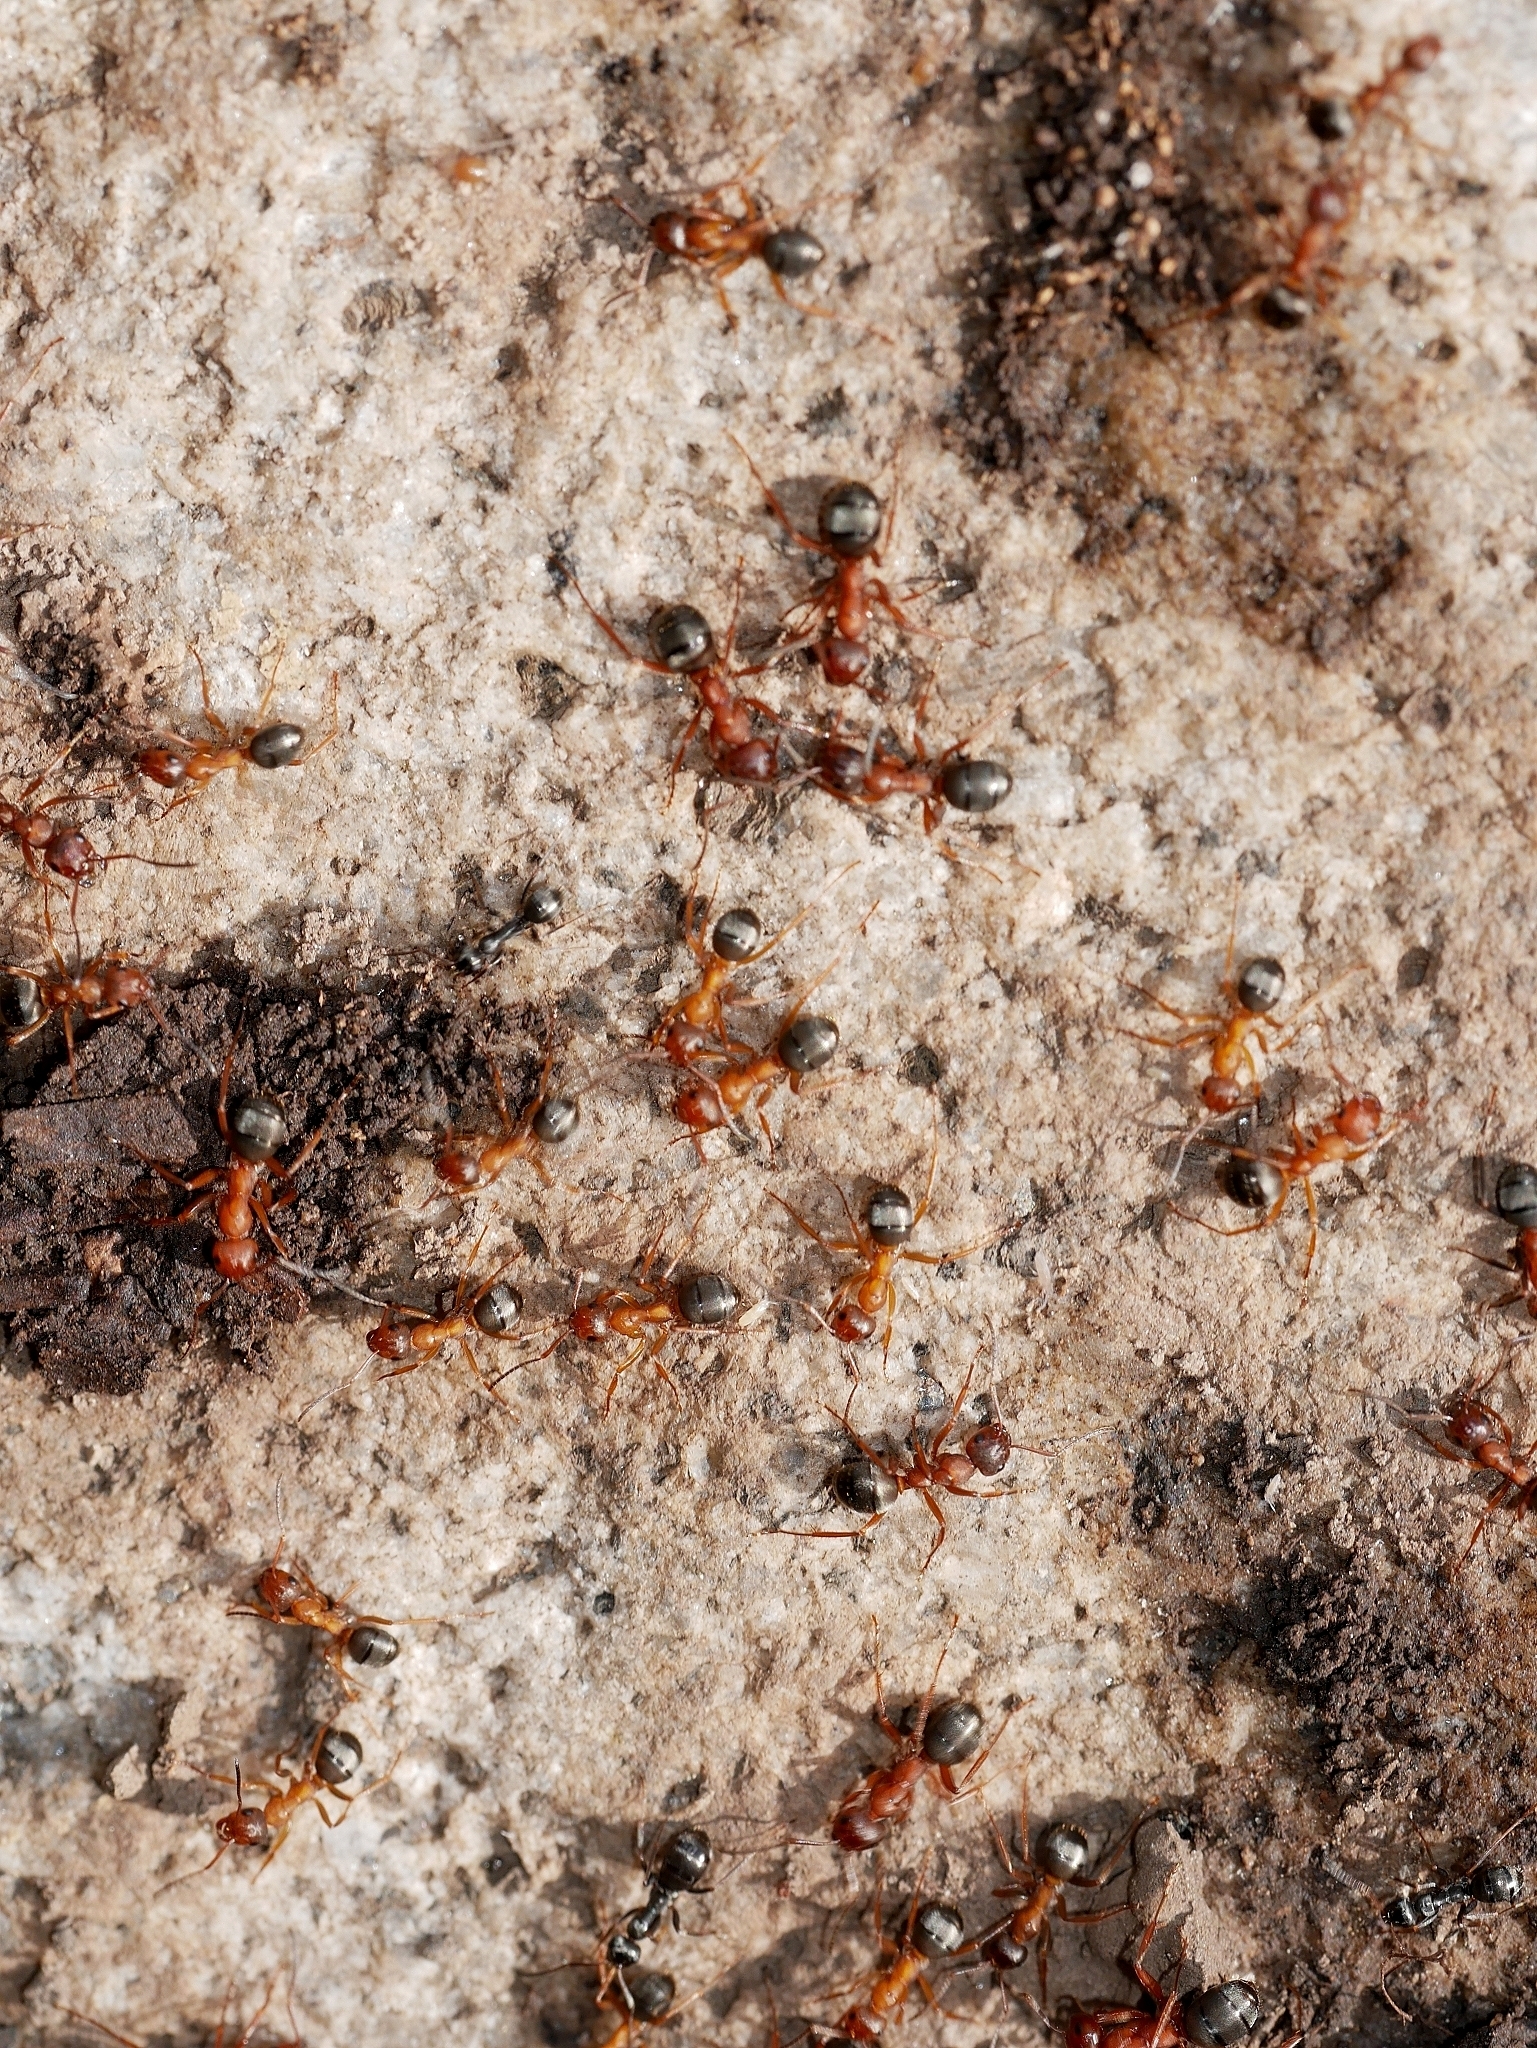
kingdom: Animalia
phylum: Arthropoda
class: Insecta
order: Hymenoptera
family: Formicidae
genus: Formica
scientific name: Formica aserva
